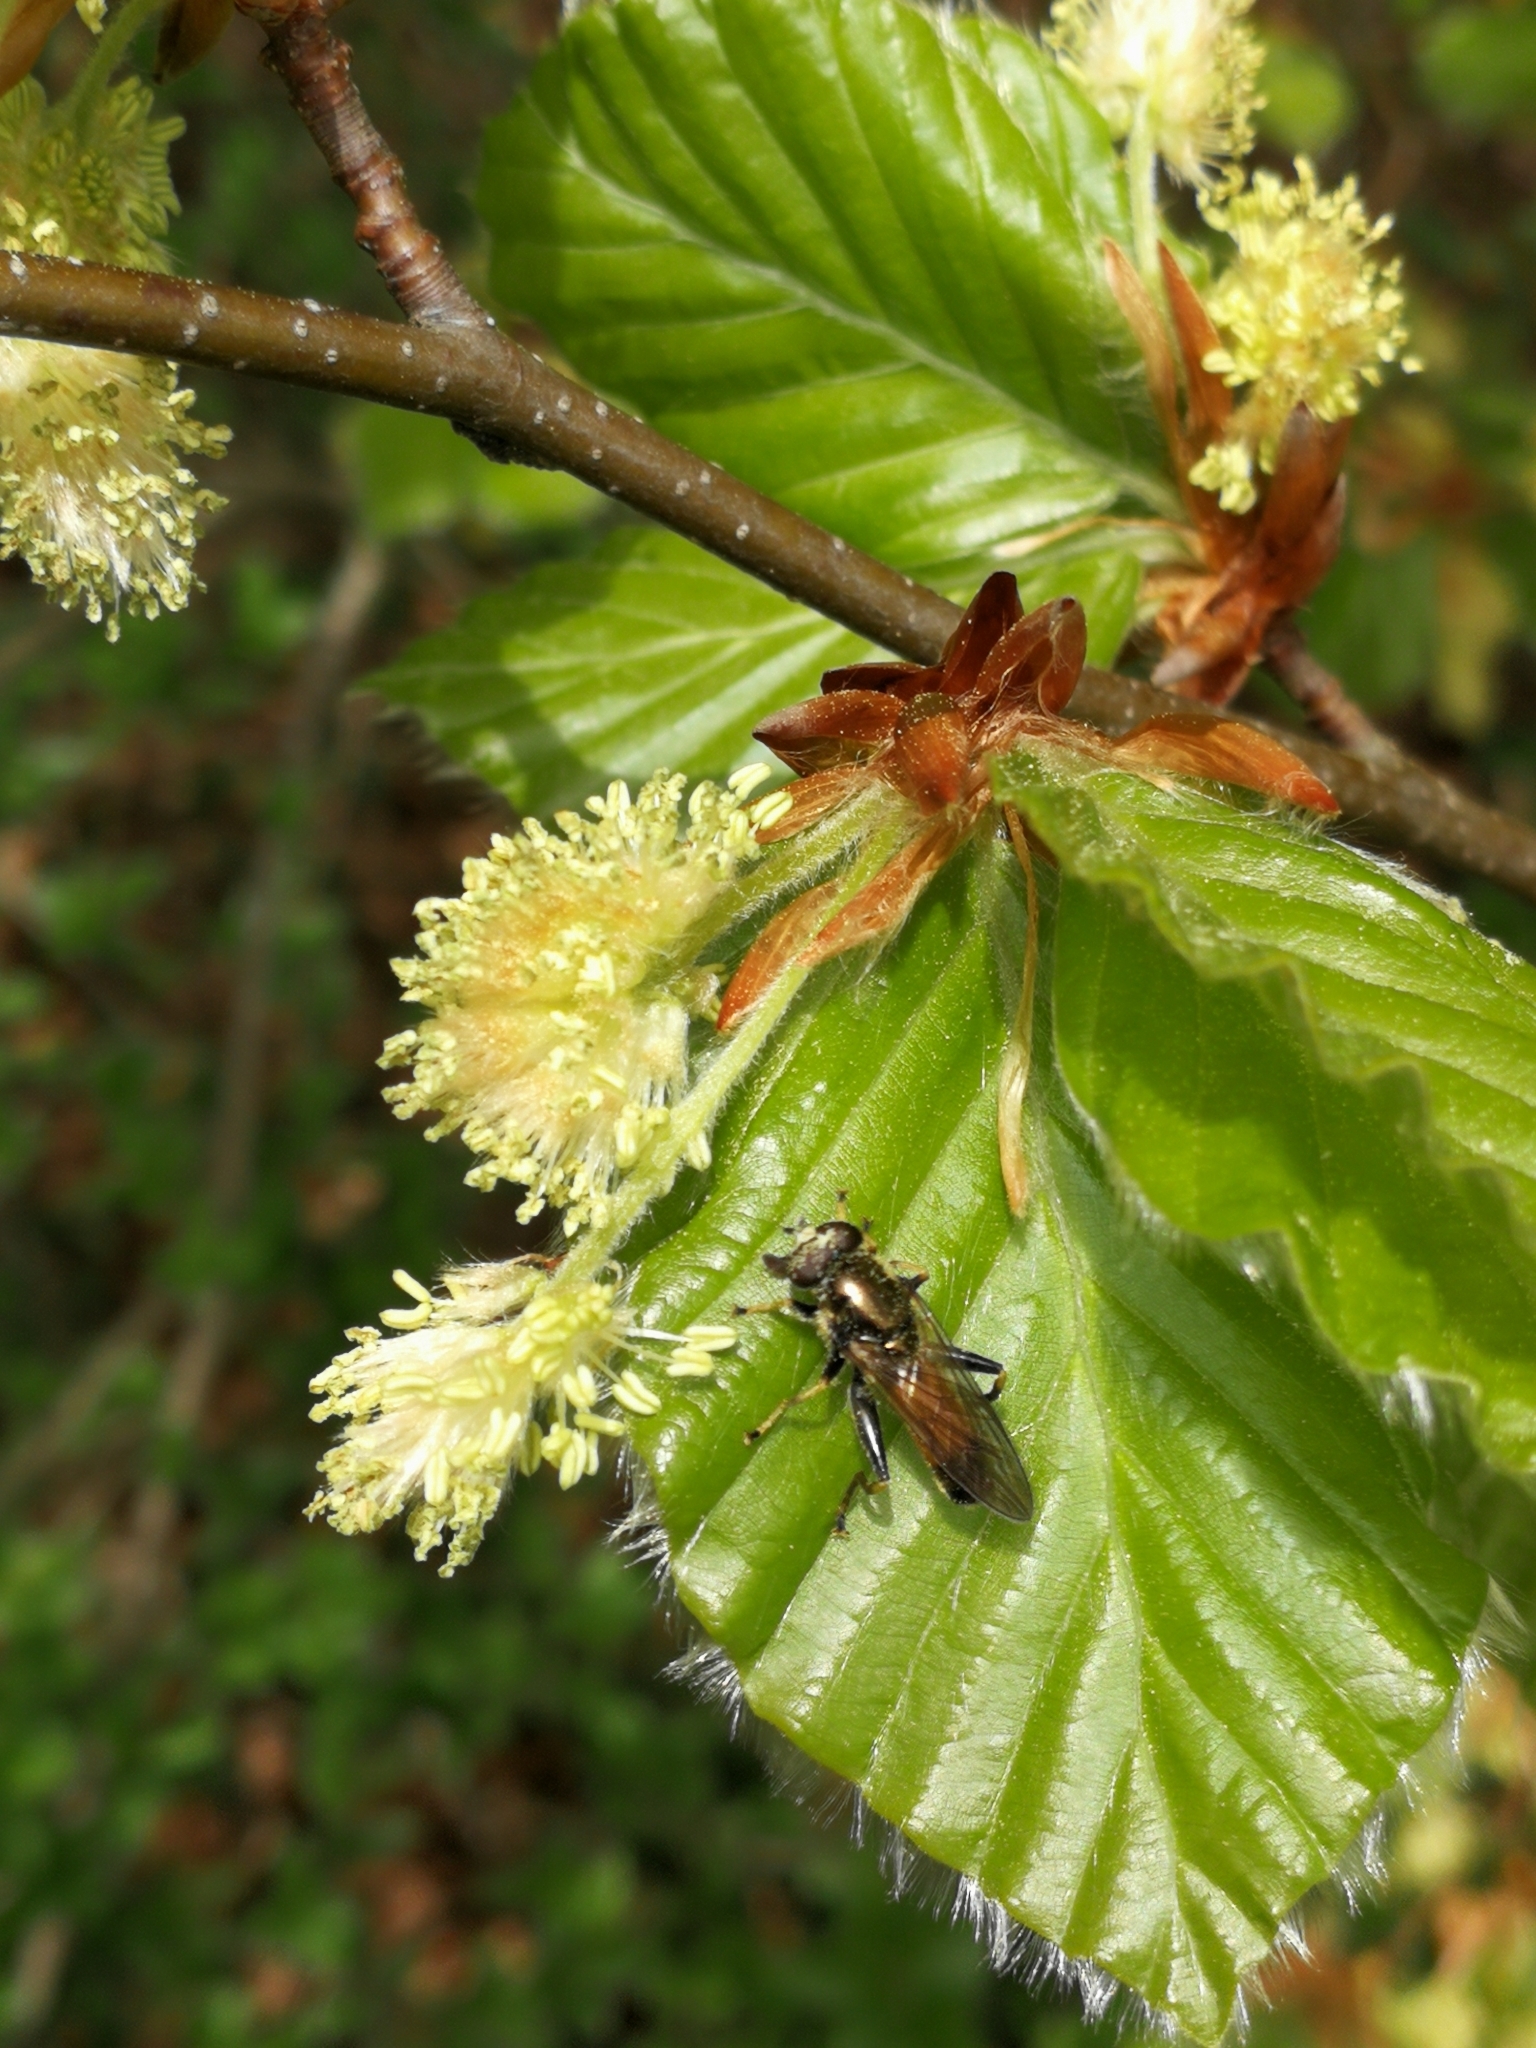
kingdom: Animalia
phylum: Arthropoda
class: Insecta
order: Diptera
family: Syrphidae
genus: Xylota
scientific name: Xylota segnis
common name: Brown-toed forest fly
